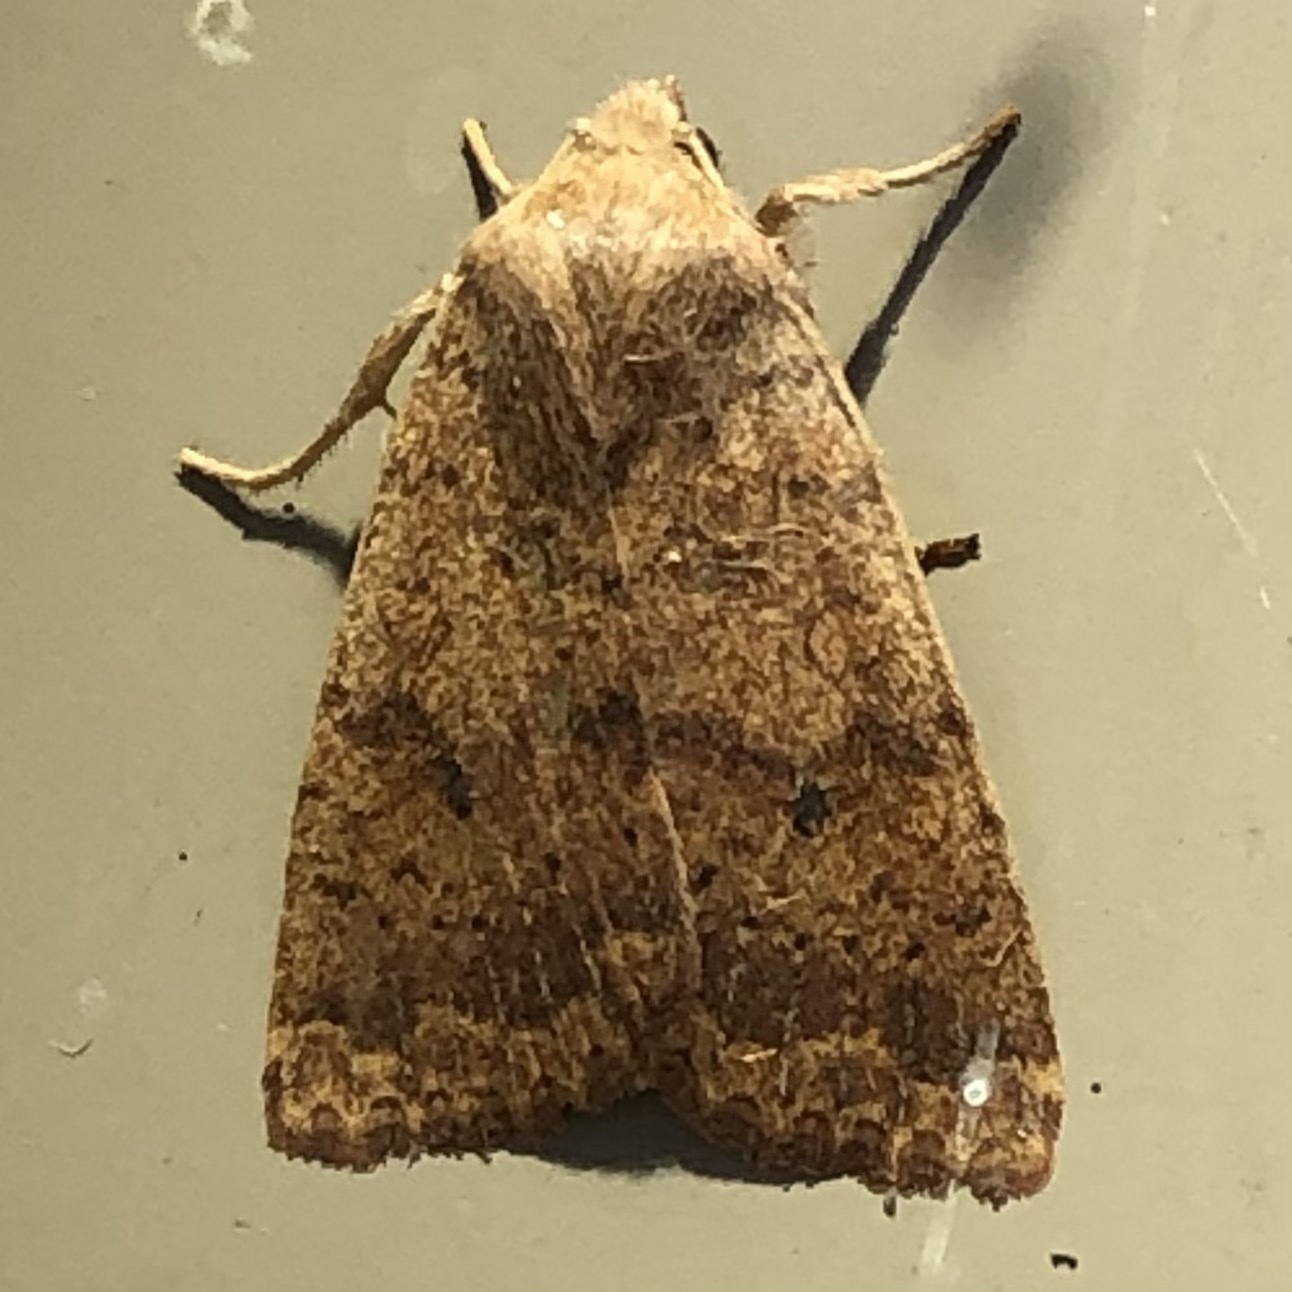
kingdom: Animalia
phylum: Arthropoda
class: Insecta
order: Lepidoptera
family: Noctuidae
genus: Agrochola
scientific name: Agrochola bicolorago
